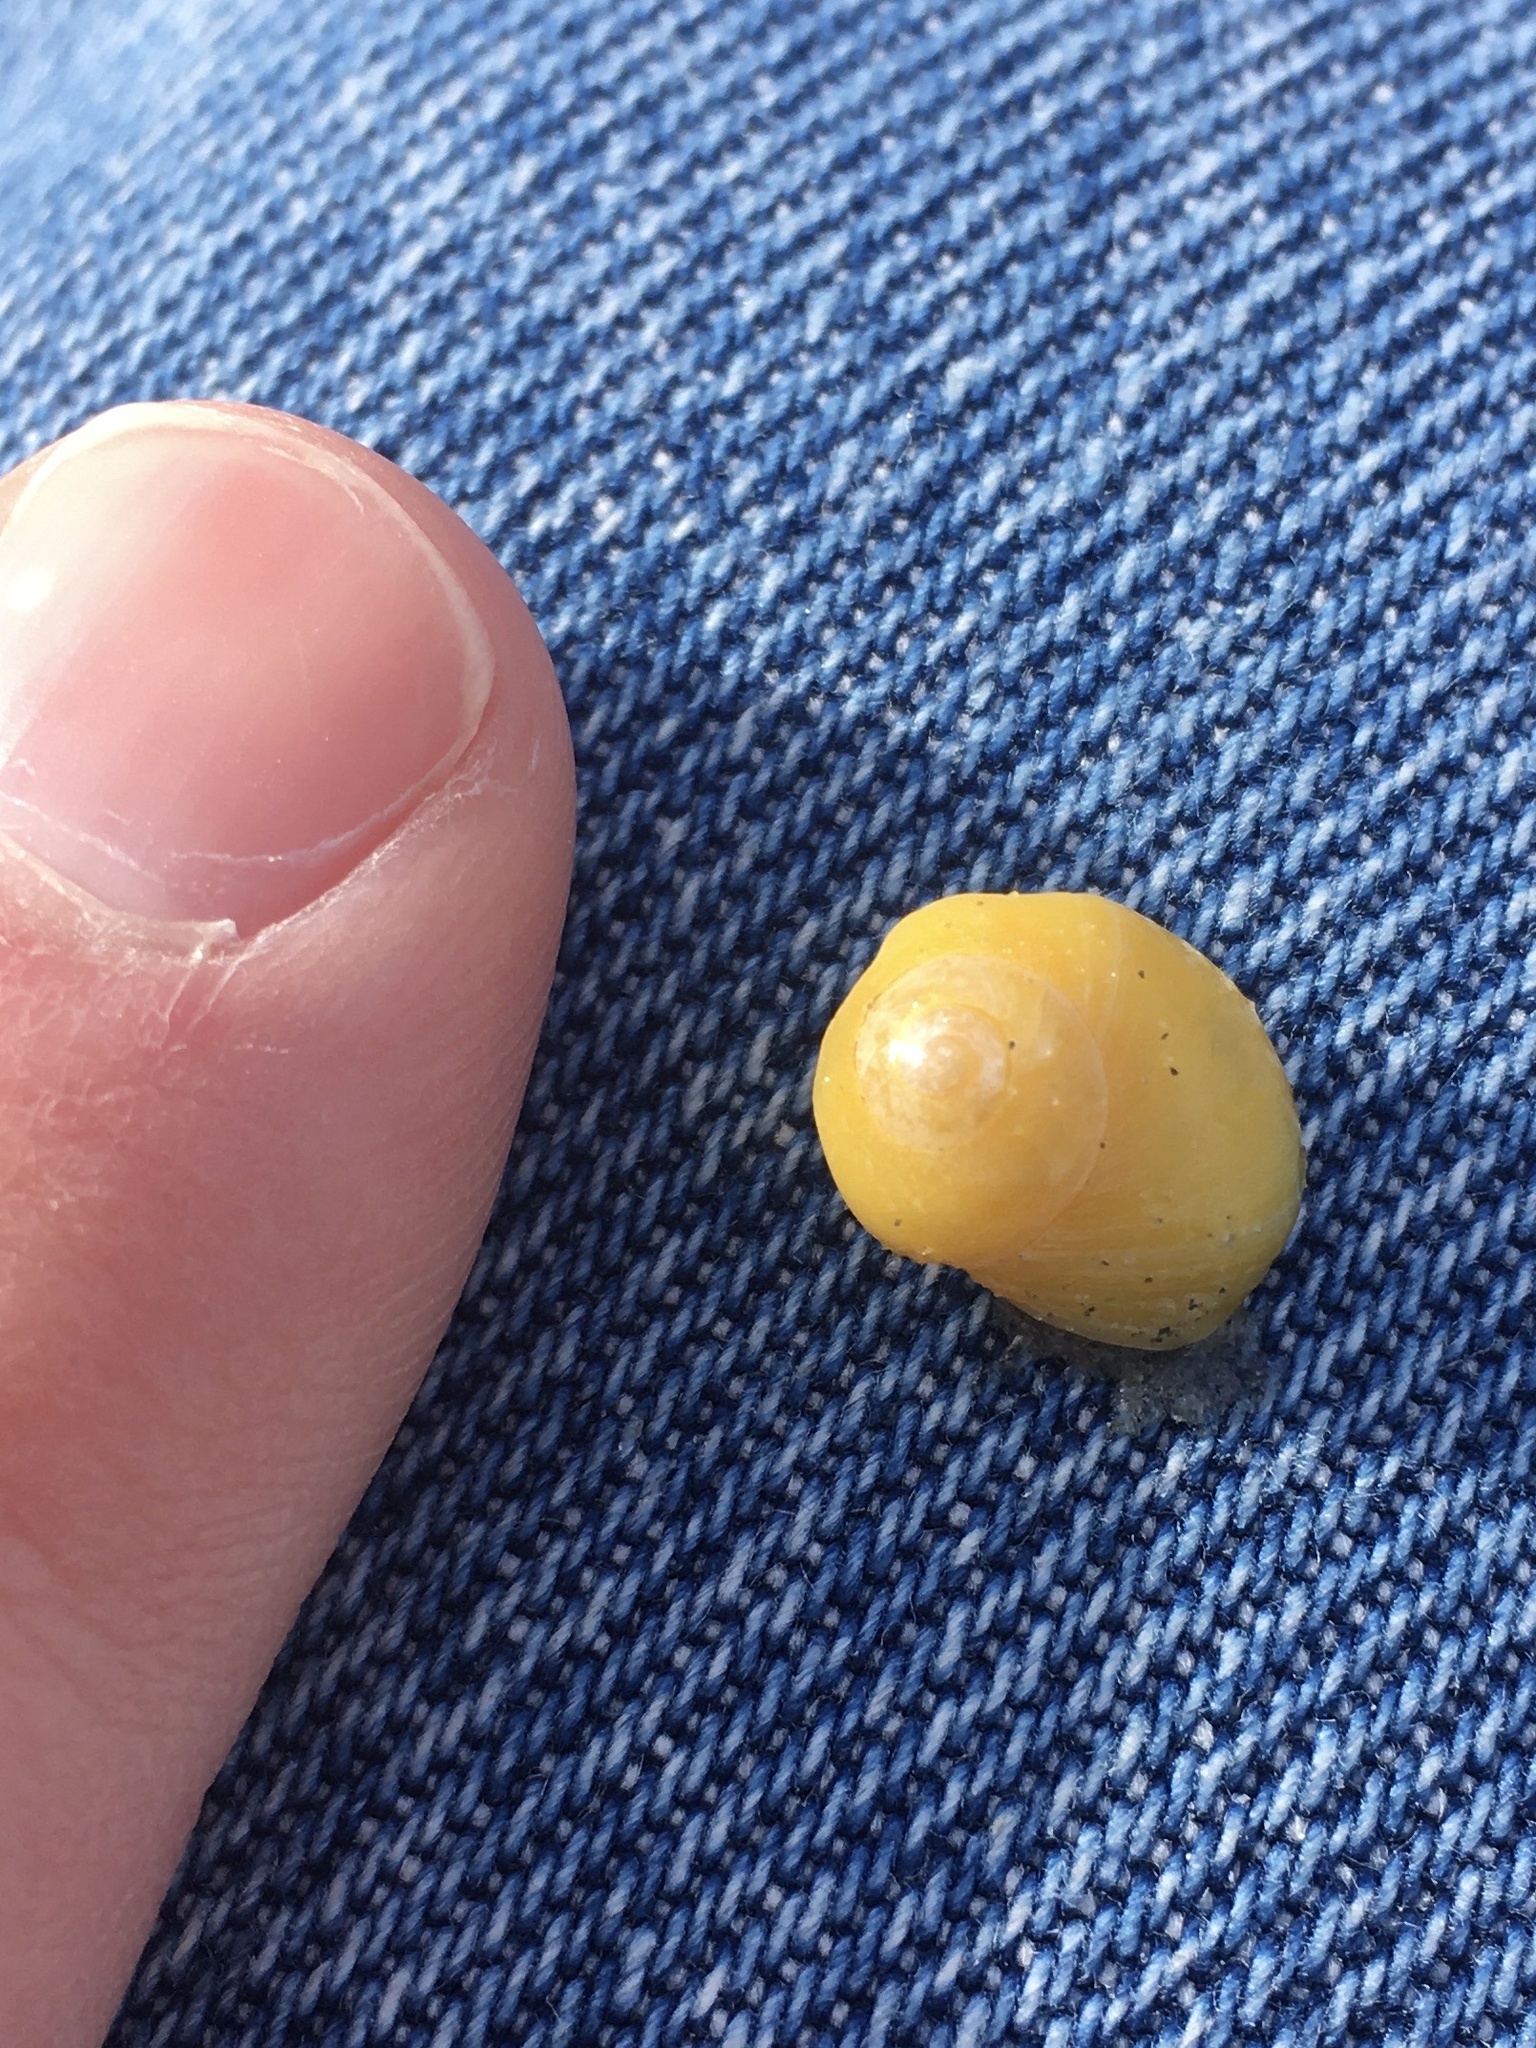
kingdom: Animalia
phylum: Mollusca
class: Gastropoda
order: Littorinimorpha
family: Littorinidae
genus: Littorina
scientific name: Littorina obtusata
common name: Flat periwinkle
